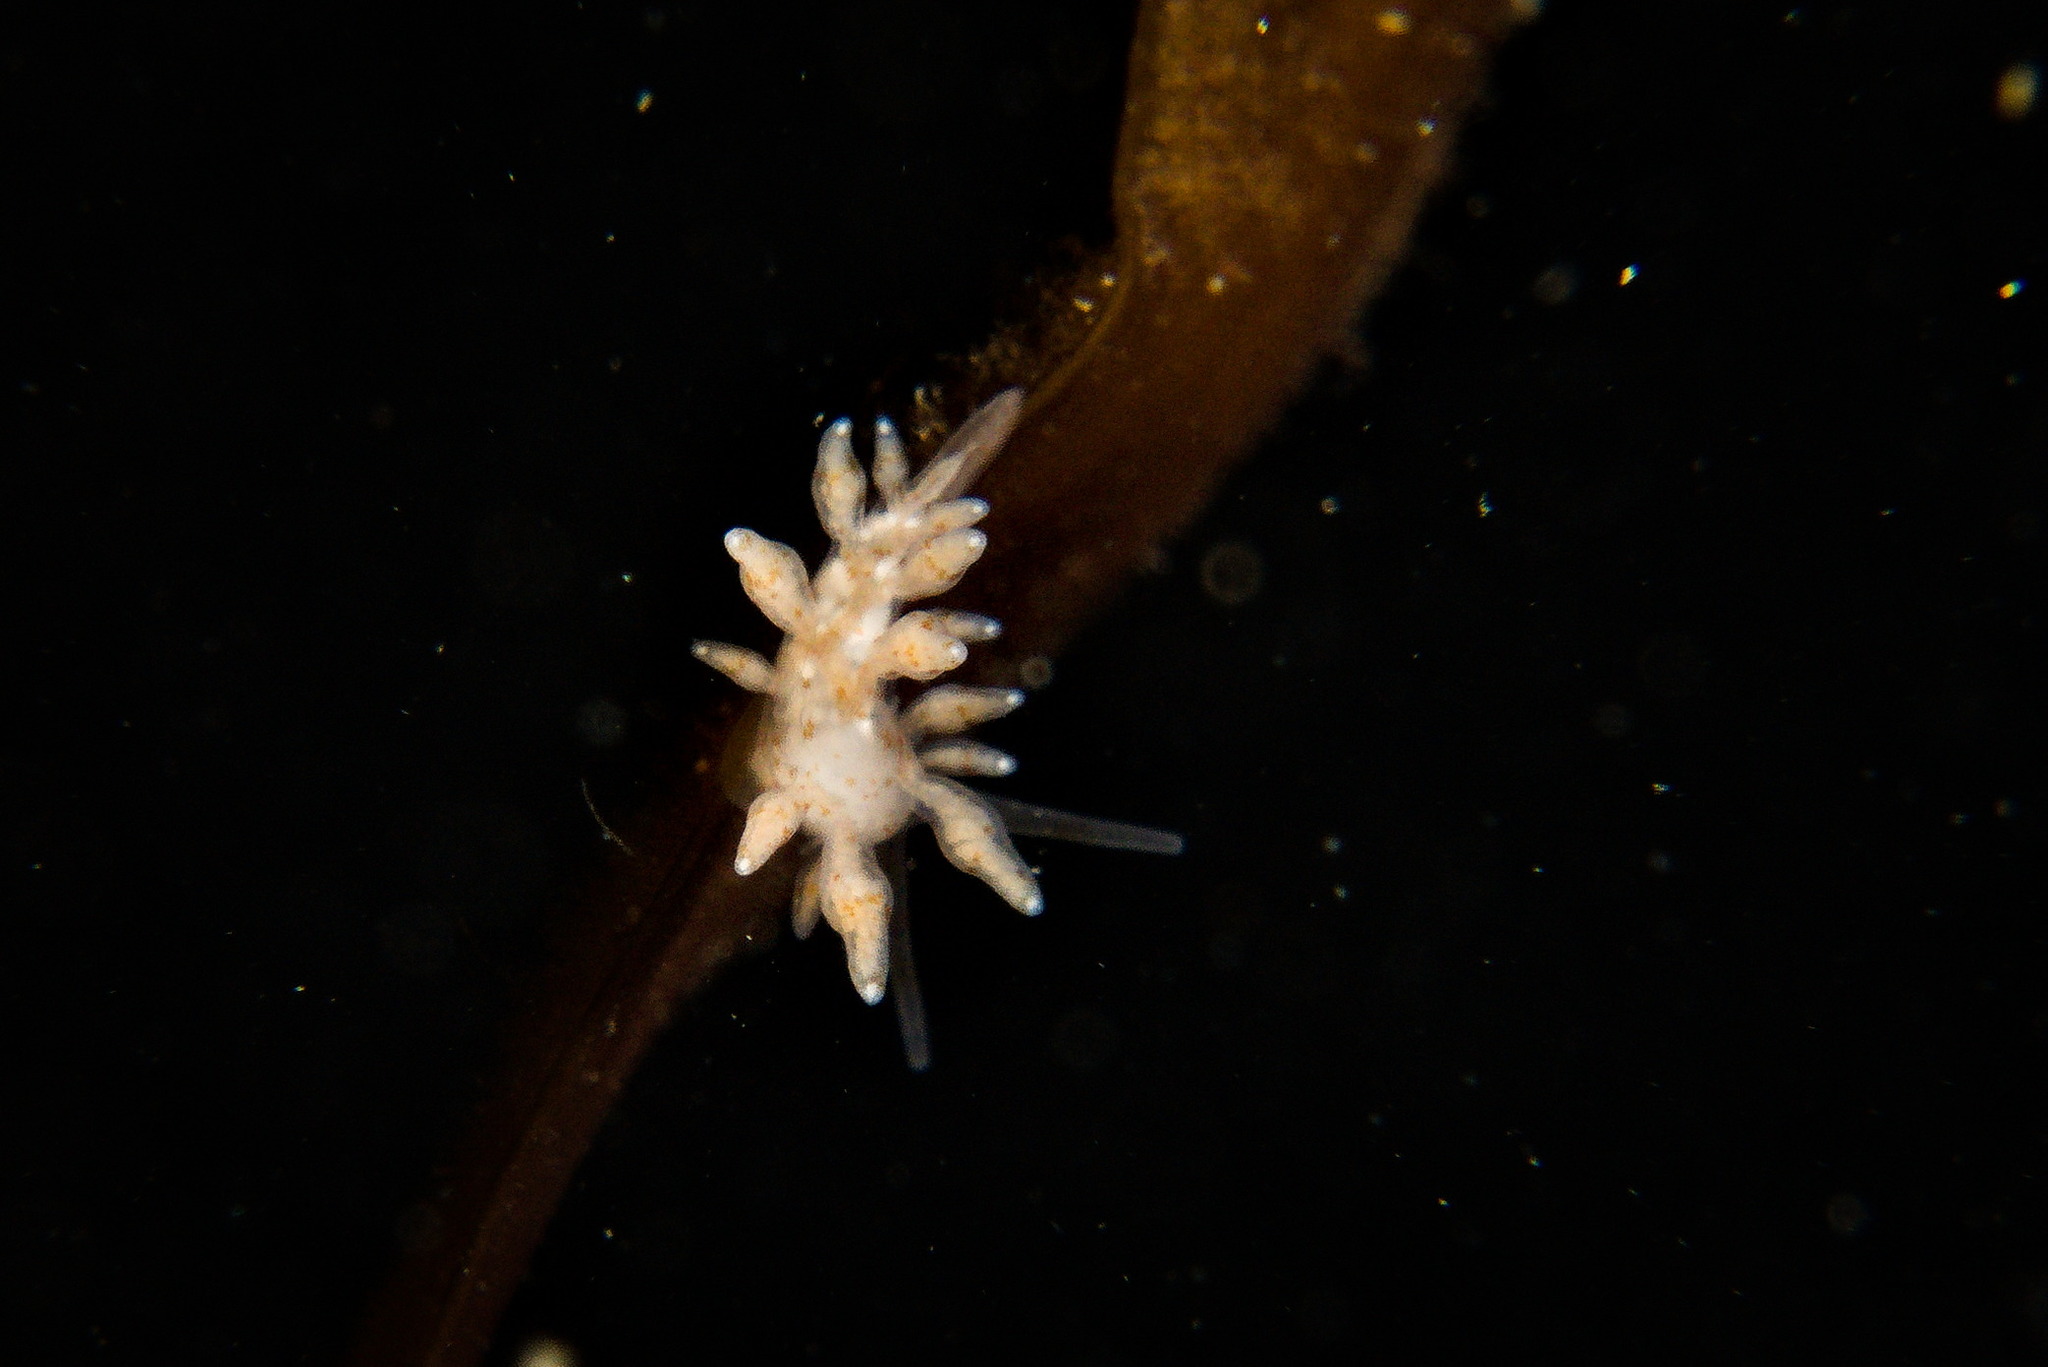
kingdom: Animalia
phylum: Mollusca
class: Gastropoda
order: Nudibranchia
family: Eubranchidae
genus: Eubranchus
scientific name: Eubranchus rupium
